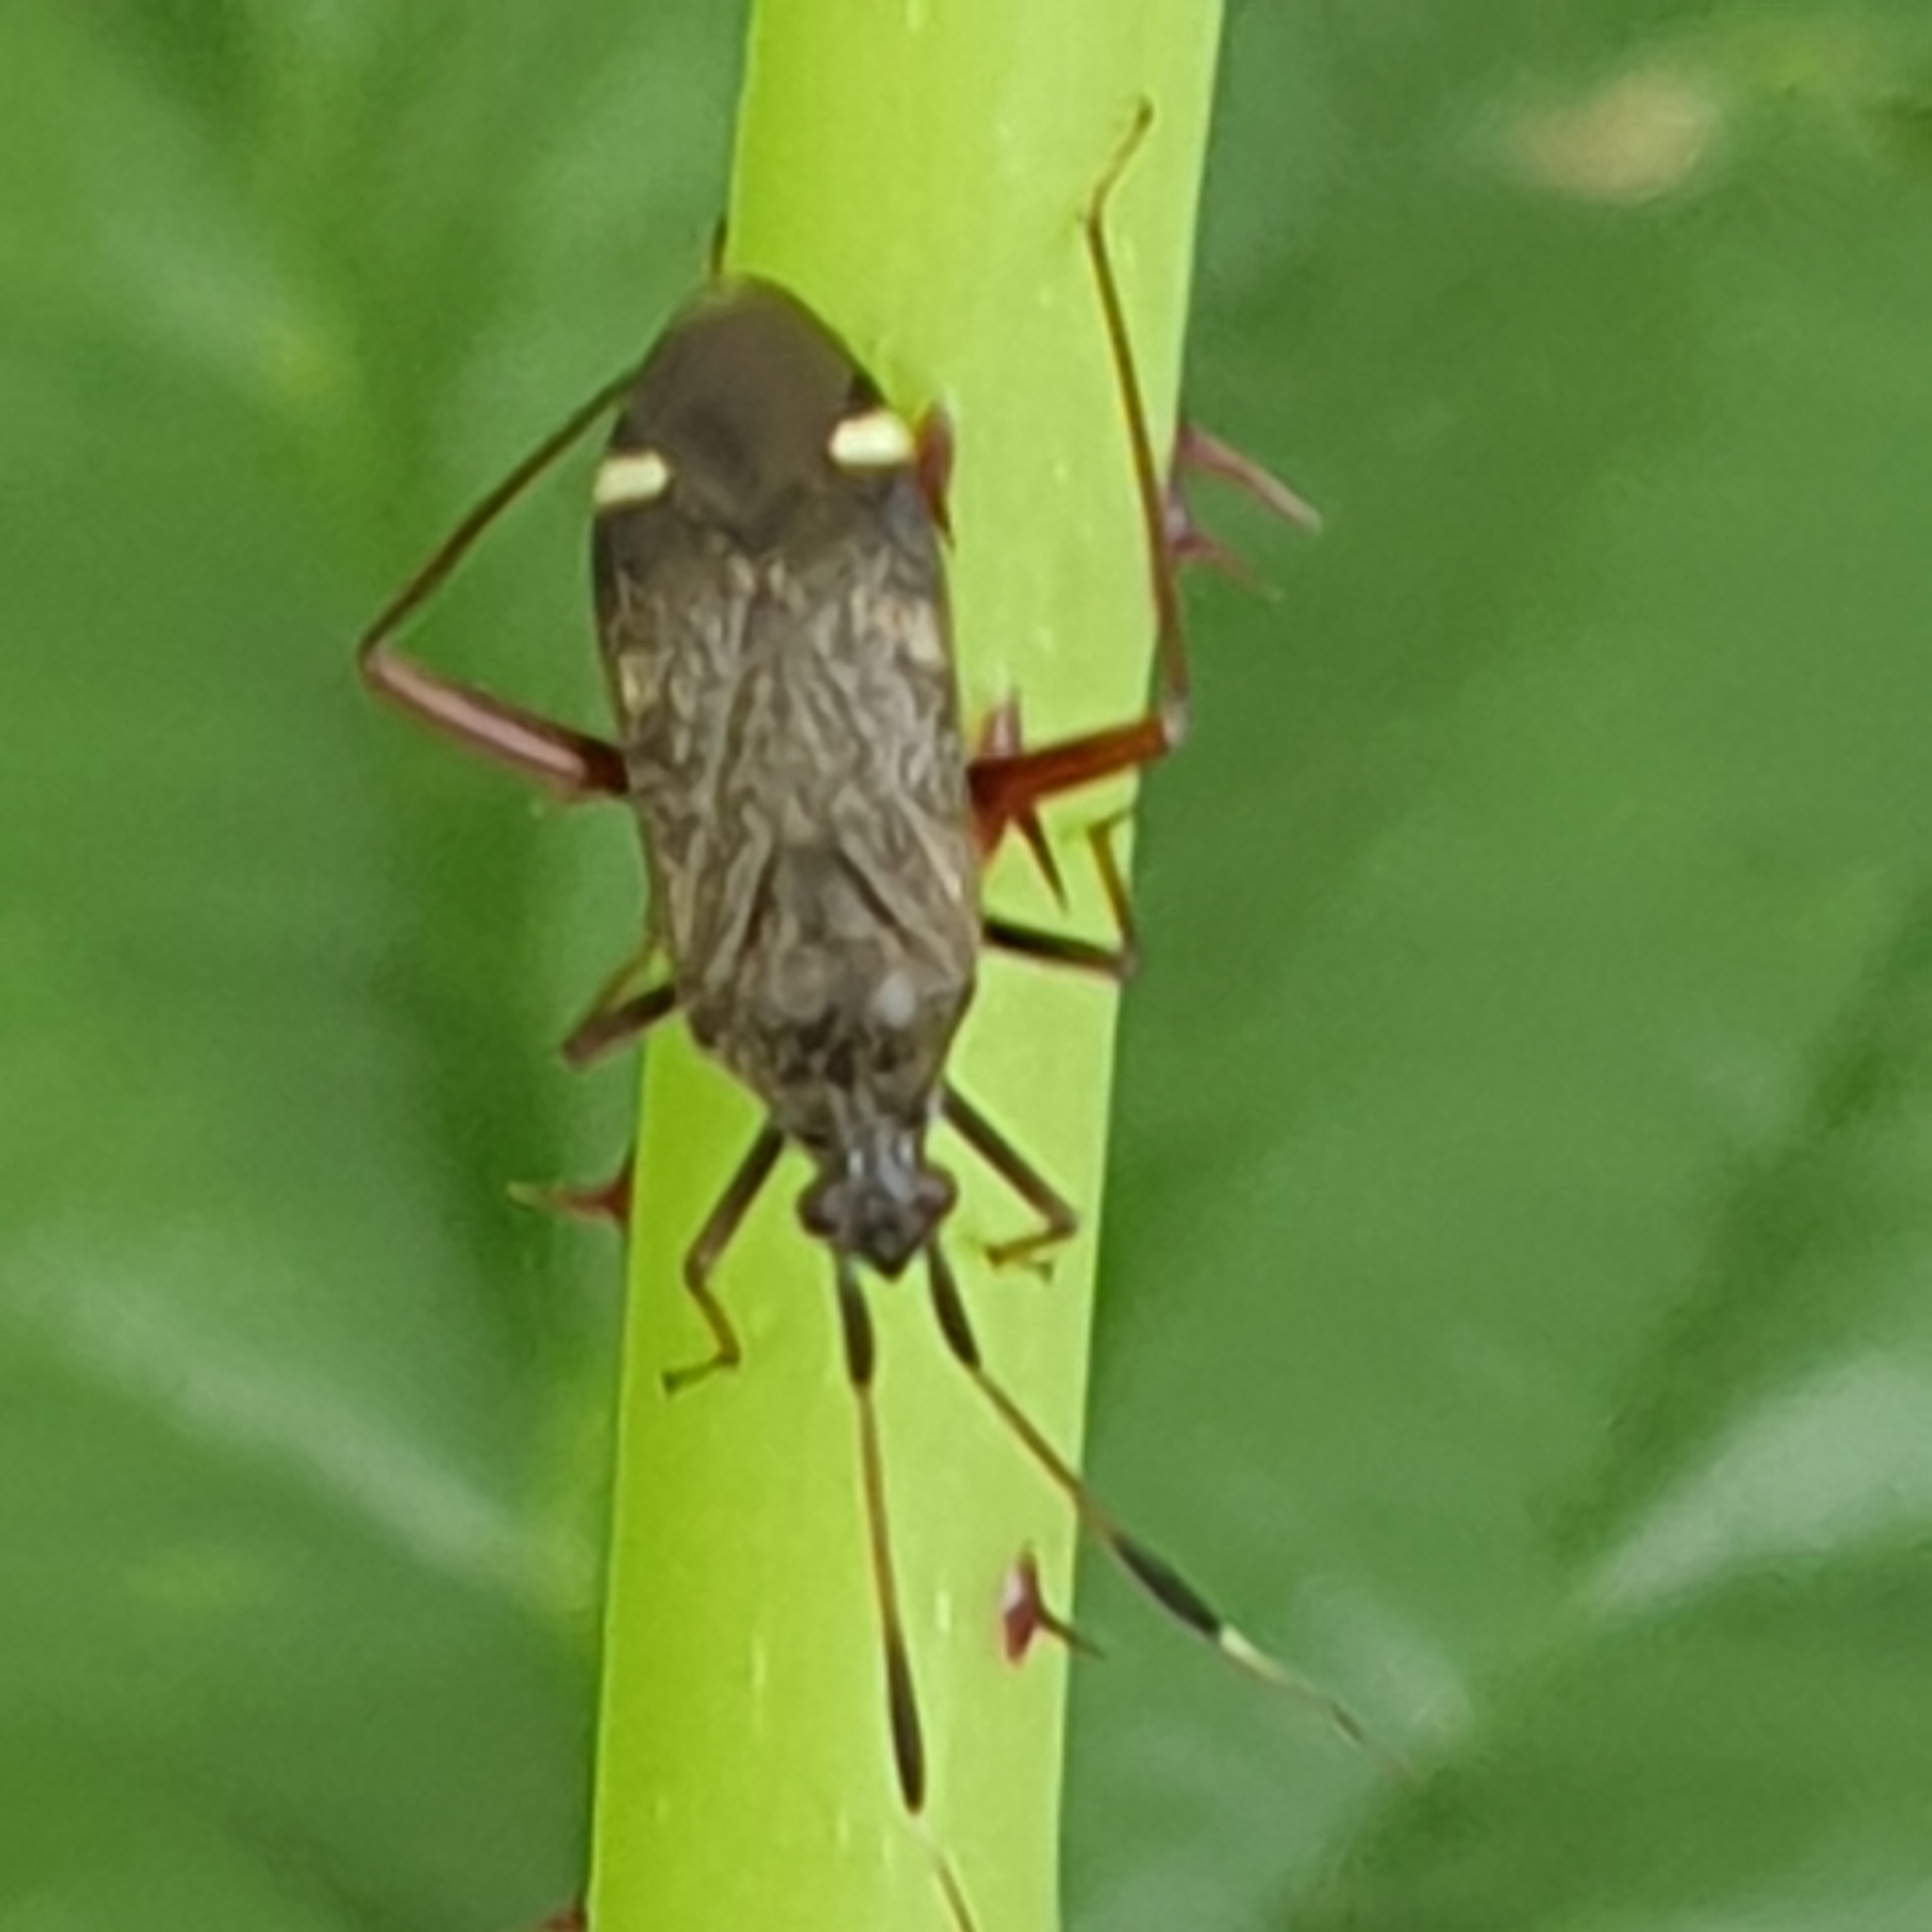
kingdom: Animalia
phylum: Arthropoda
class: Insecta
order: Hemiptera
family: Miridae
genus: Closterotomus
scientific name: Closterotomus biclavatus
